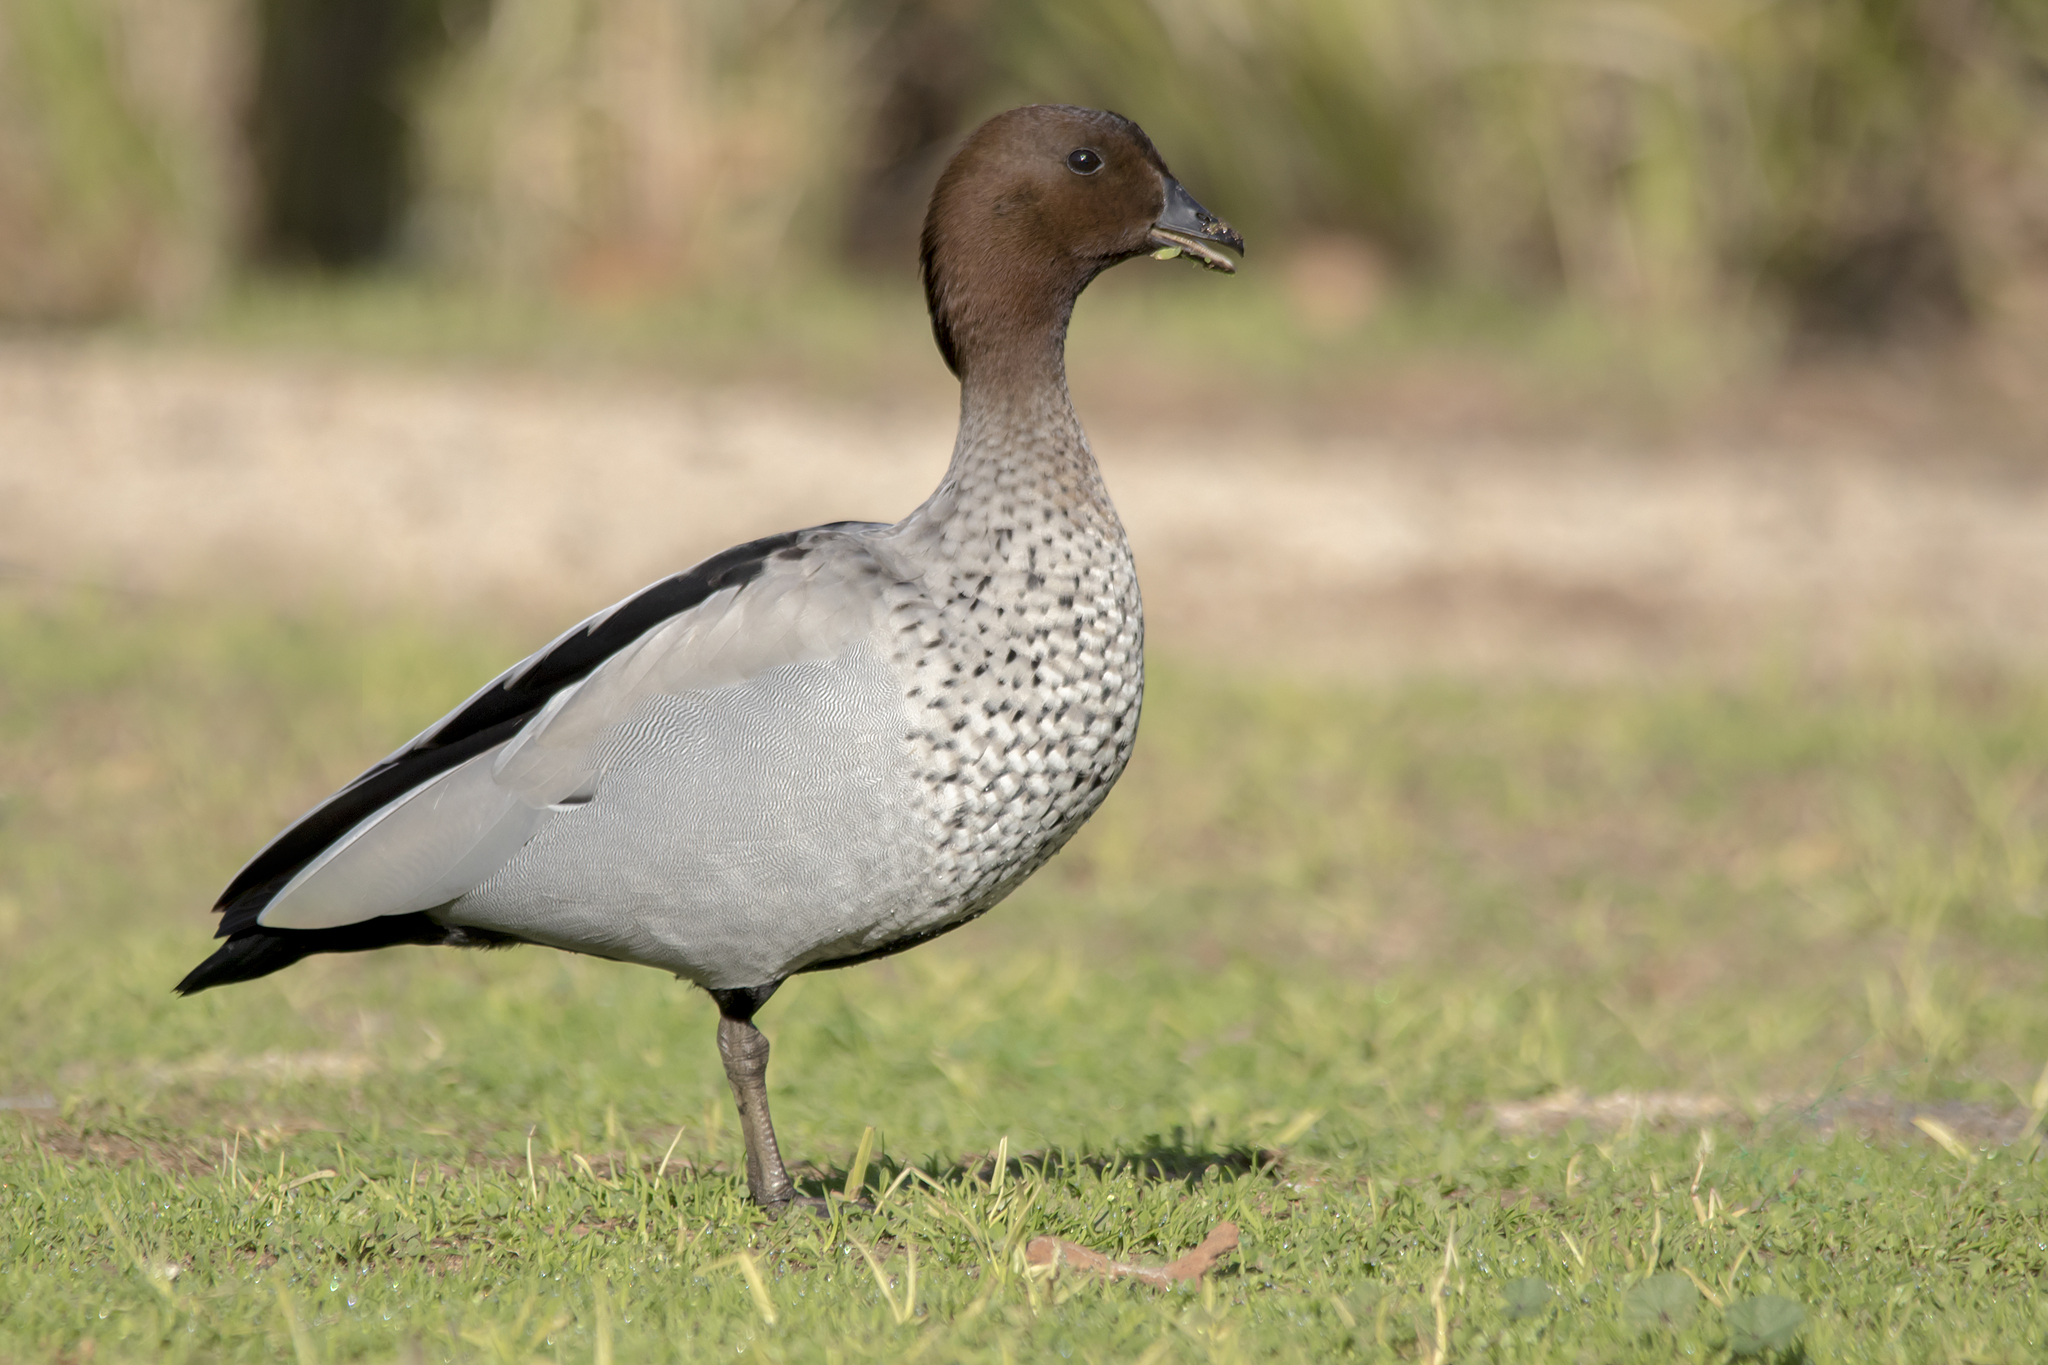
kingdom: Animalia
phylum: Chordata
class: Aves
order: Anseriformes
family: Anatidae
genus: Chenonetta
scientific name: Chenonetta jubata
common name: Maned duck
